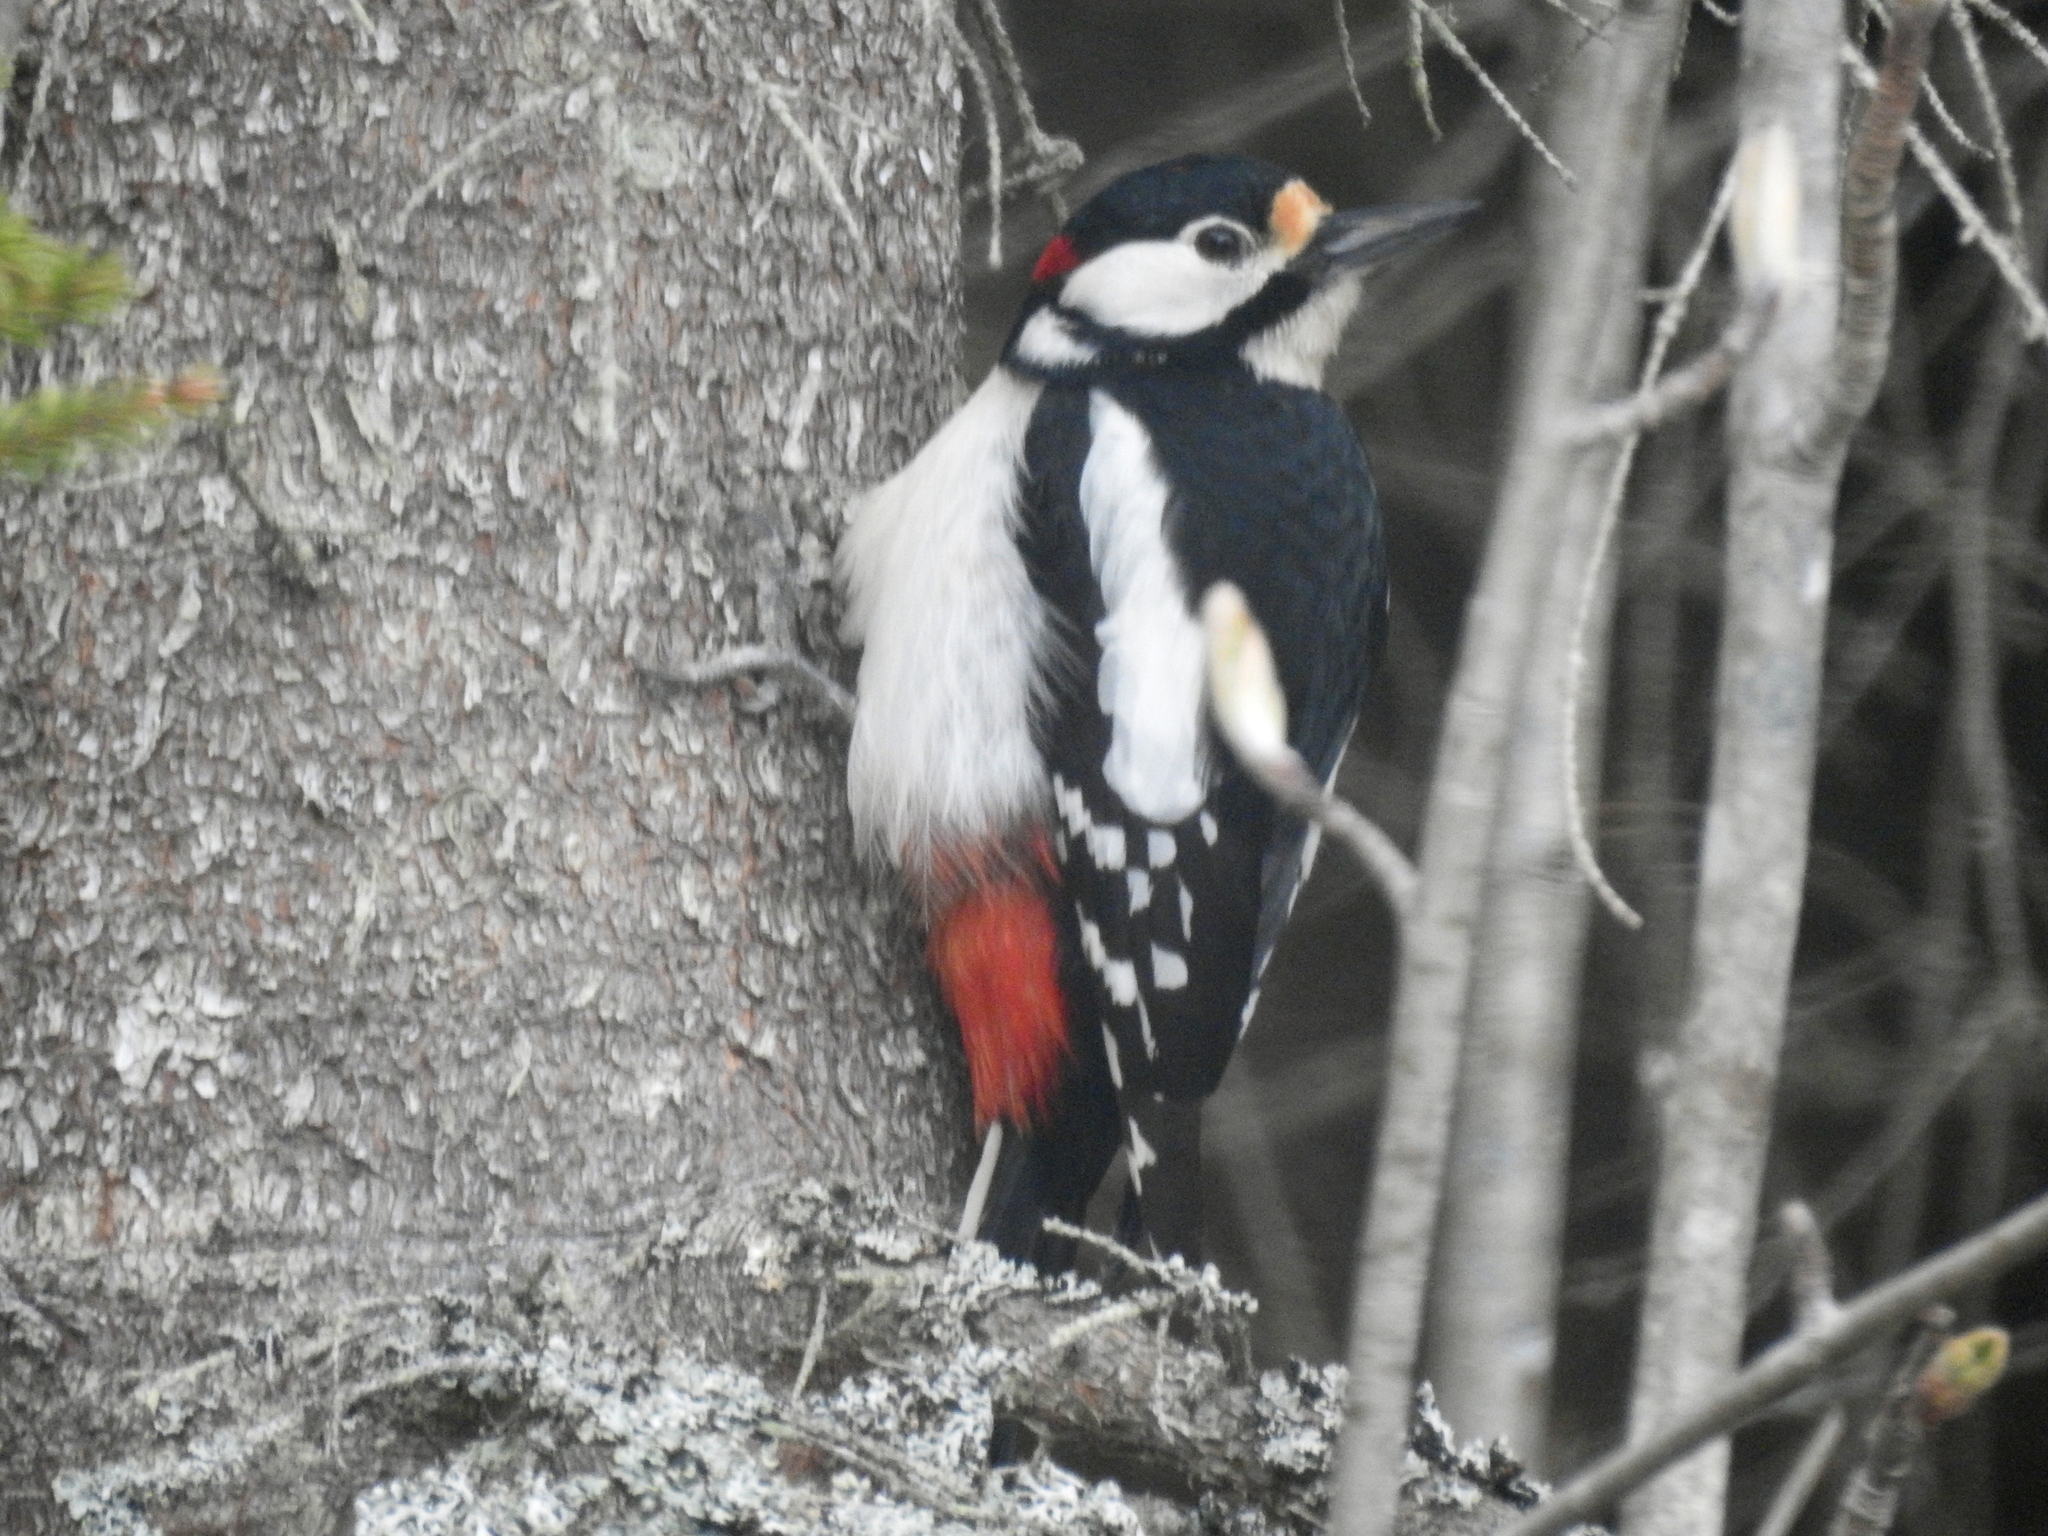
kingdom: Animalia
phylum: Chordata
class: Aves
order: Piciformes
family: Picidae
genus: Dendrocopos
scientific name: Dendrocopos major
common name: Great spotted woodpecker
